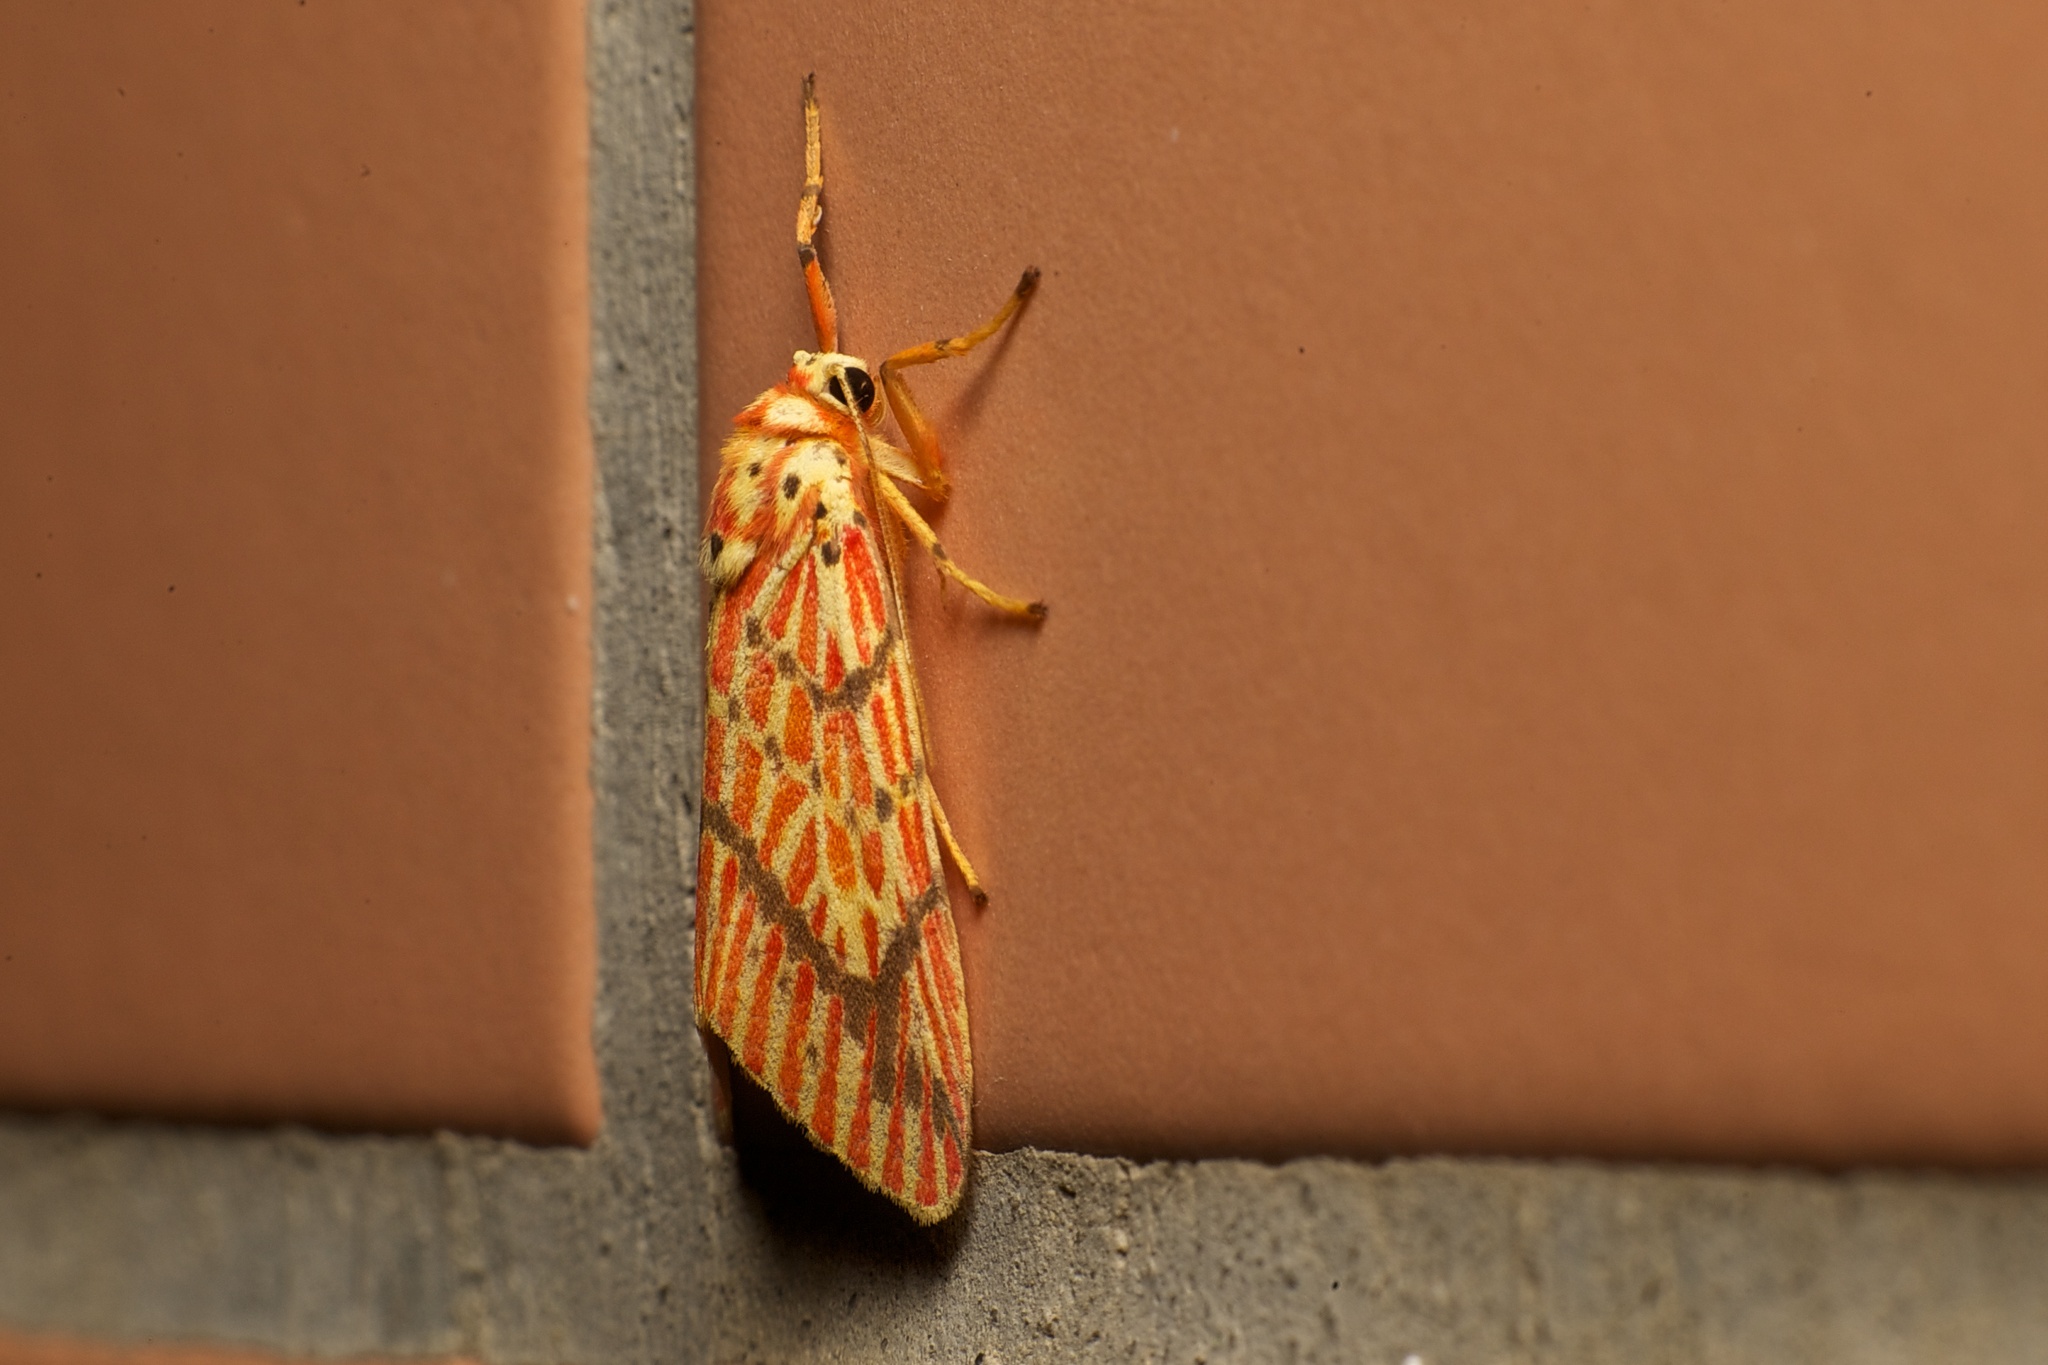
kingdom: Animalia
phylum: Arthropoda
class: Insecta
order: Lepidoptera
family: Erebidae
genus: Barsine
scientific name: Barsine striata
